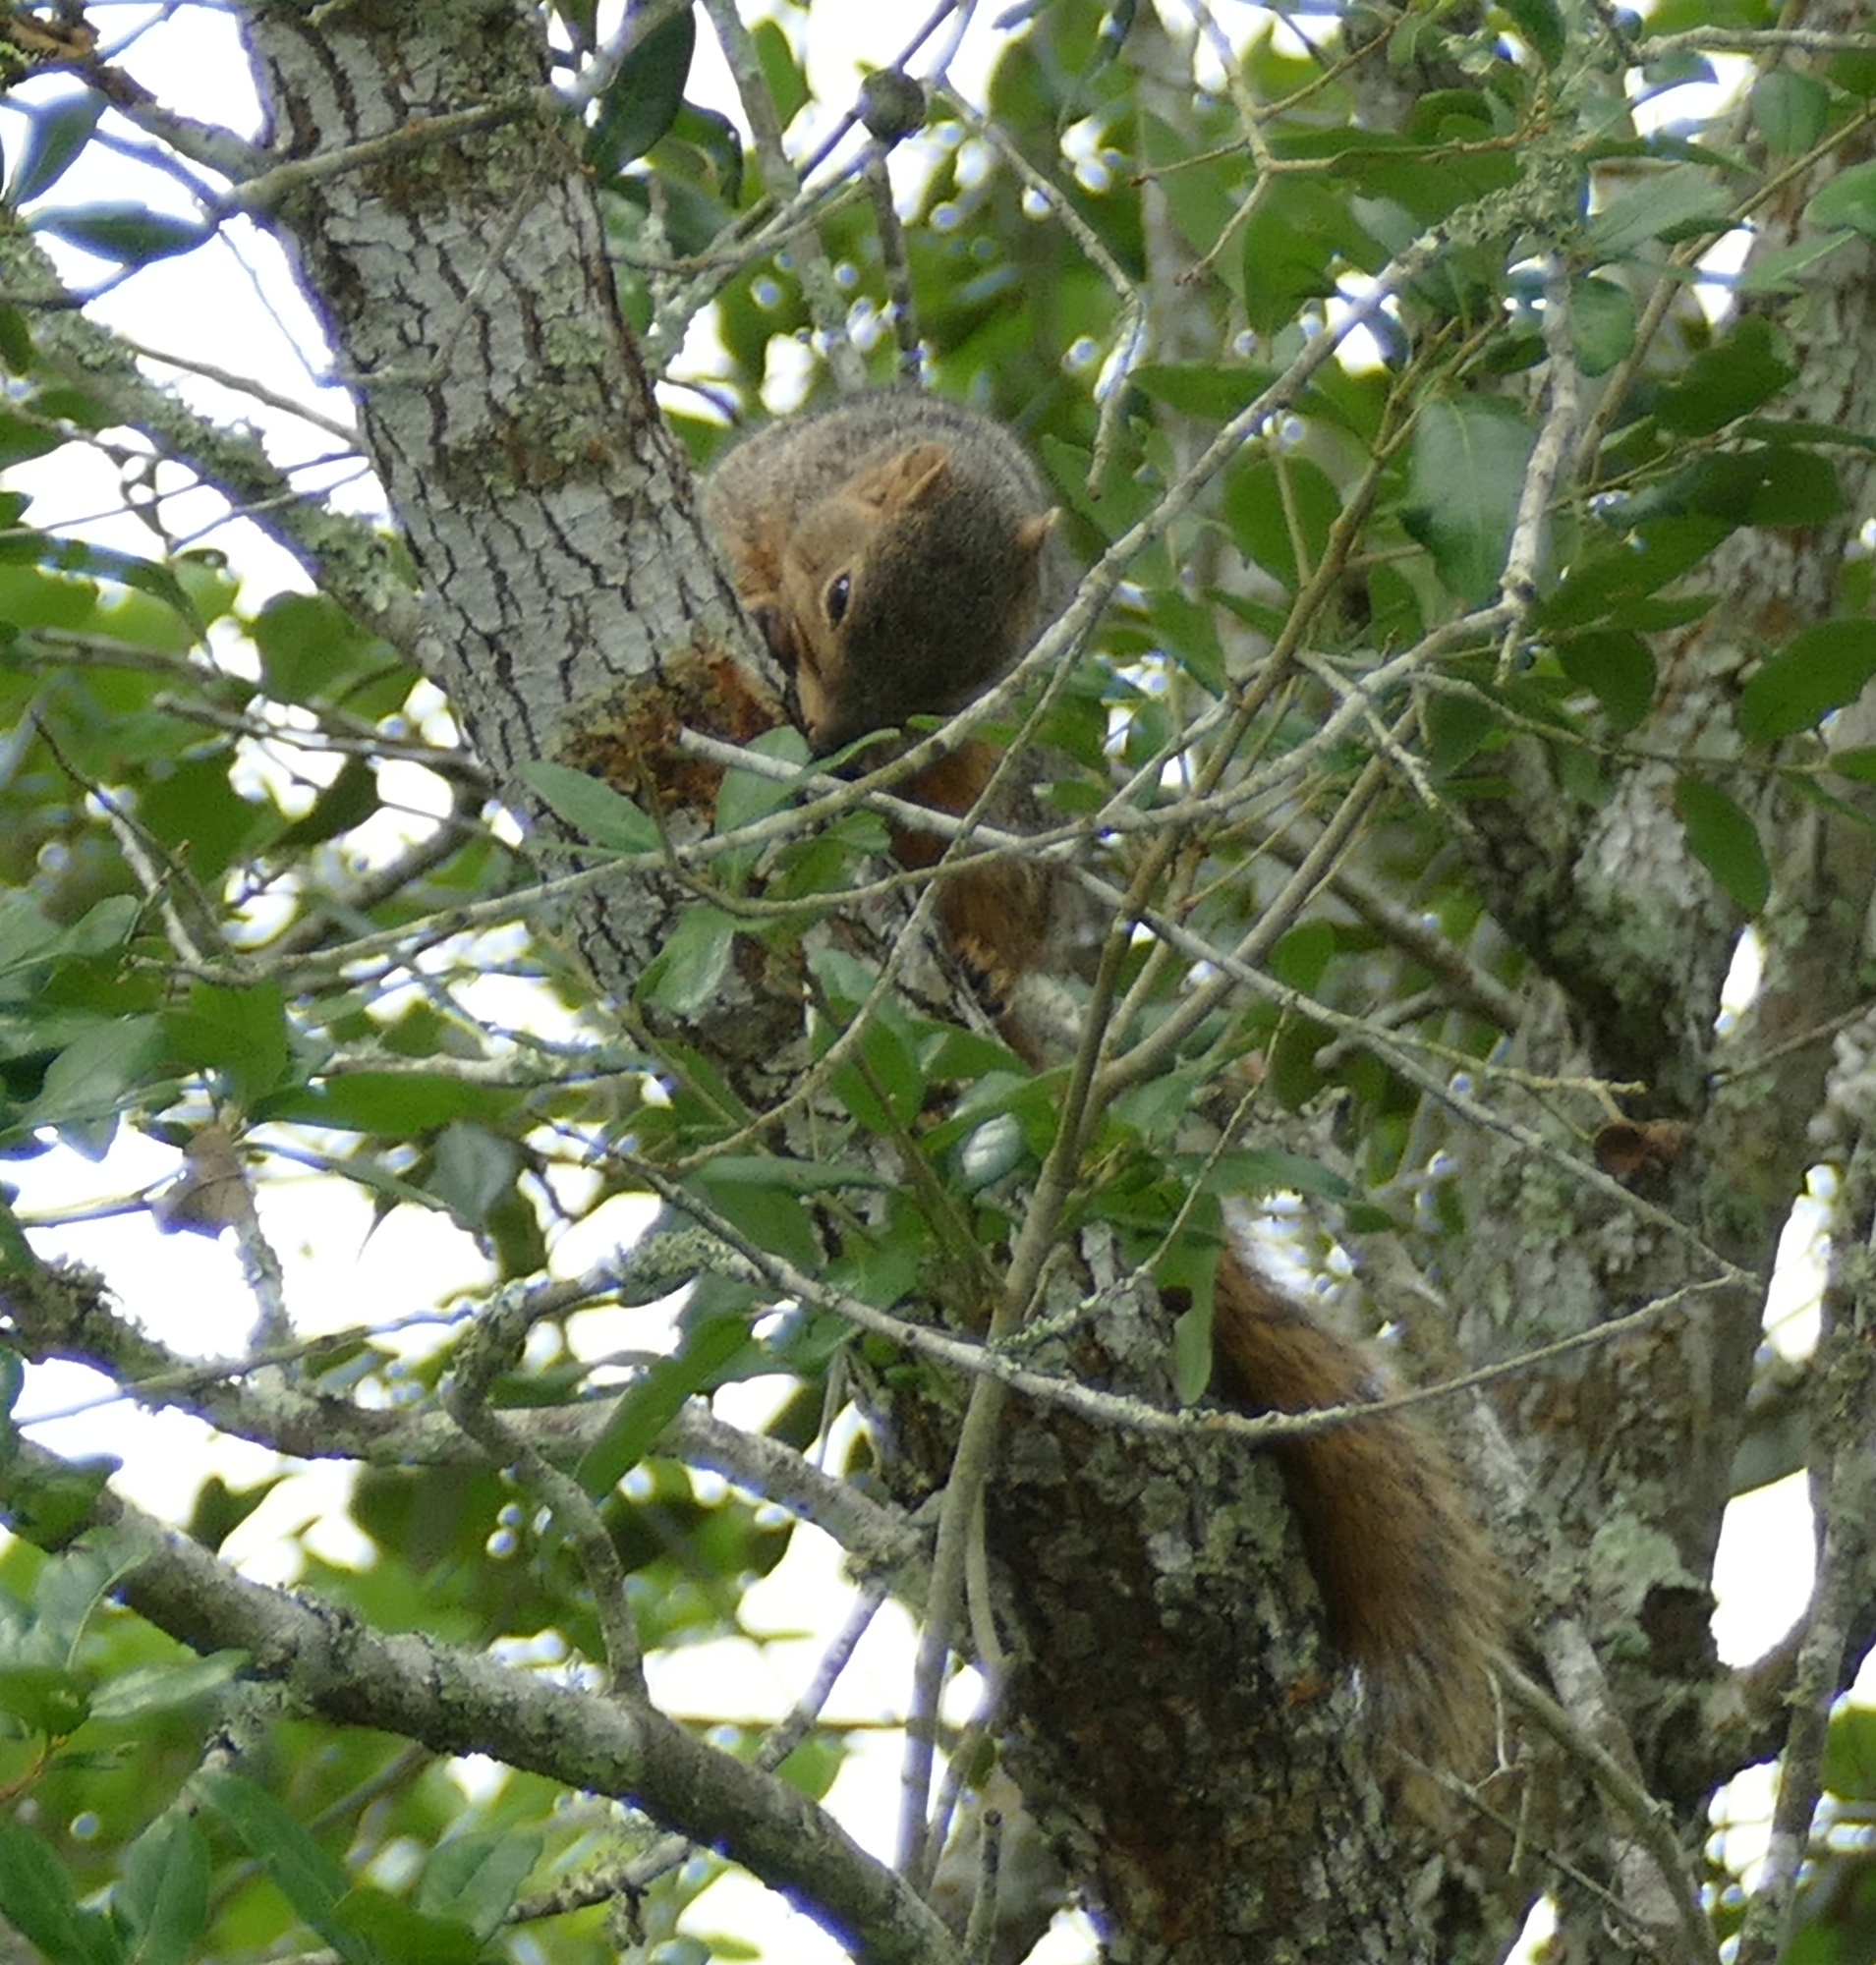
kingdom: Animalia
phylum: Chordata
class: Mammalia
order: Rodentia
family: Sciuridae
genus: Sciurus
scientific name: Sciurus niger
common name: Fox squirrel
